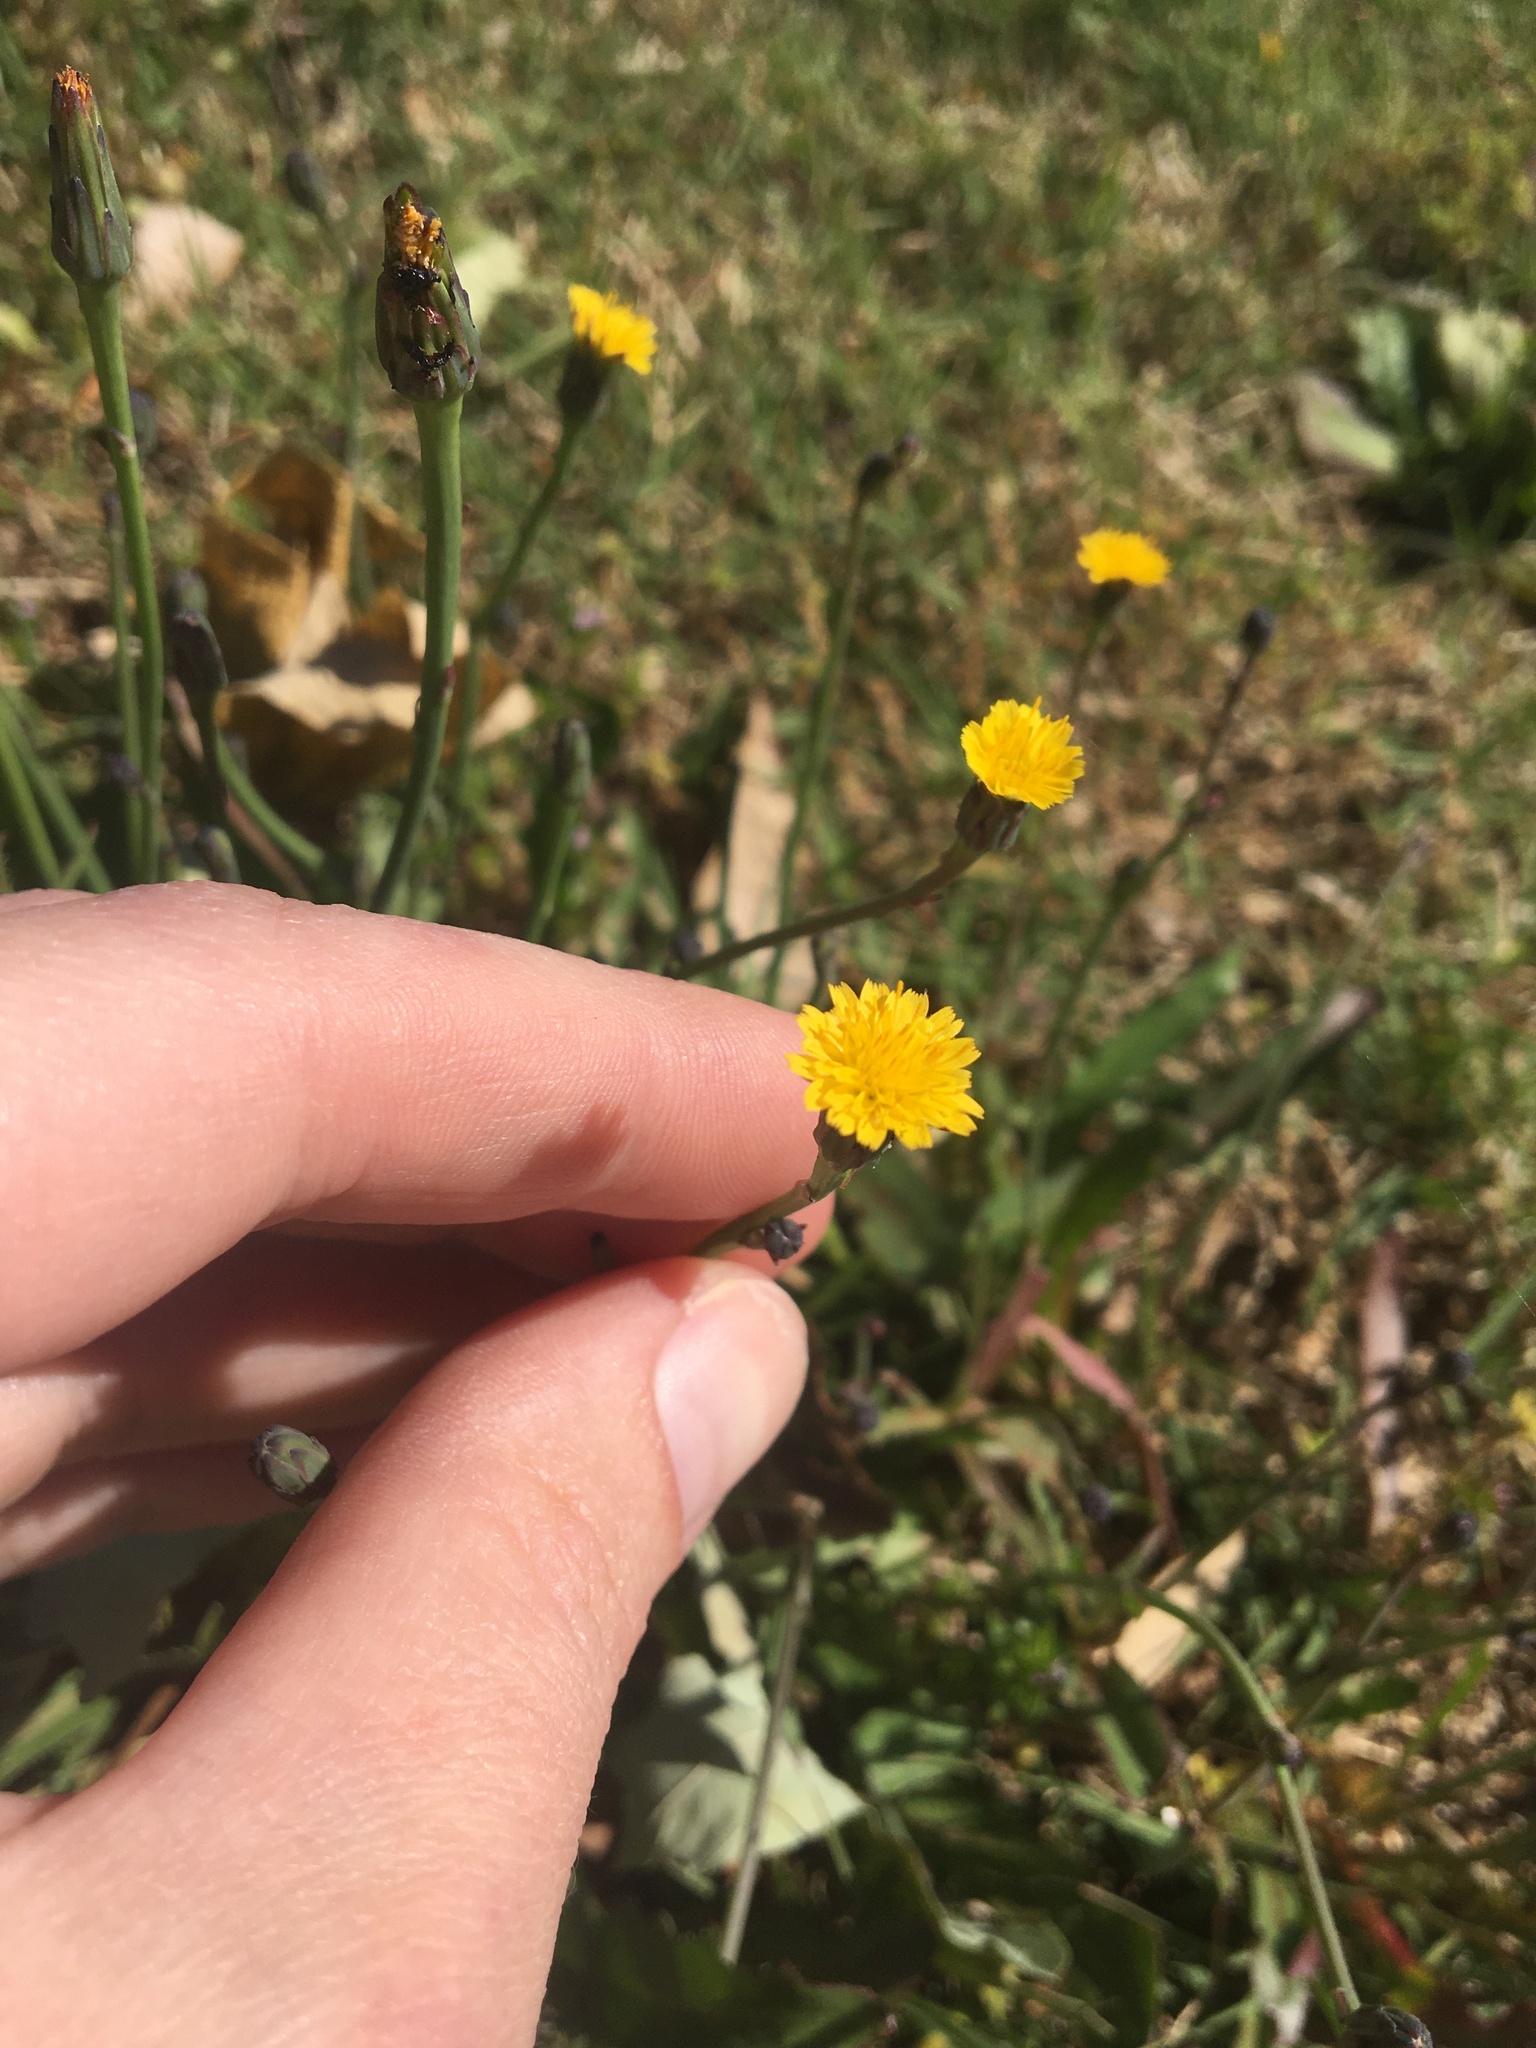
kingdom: Plantae
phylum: Tracheophyta
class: Magnoliopsida
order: Asterales
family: Asteraceae
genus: Hypochaeris
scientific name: Hypochaeris glabra
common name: Smooth catsear
